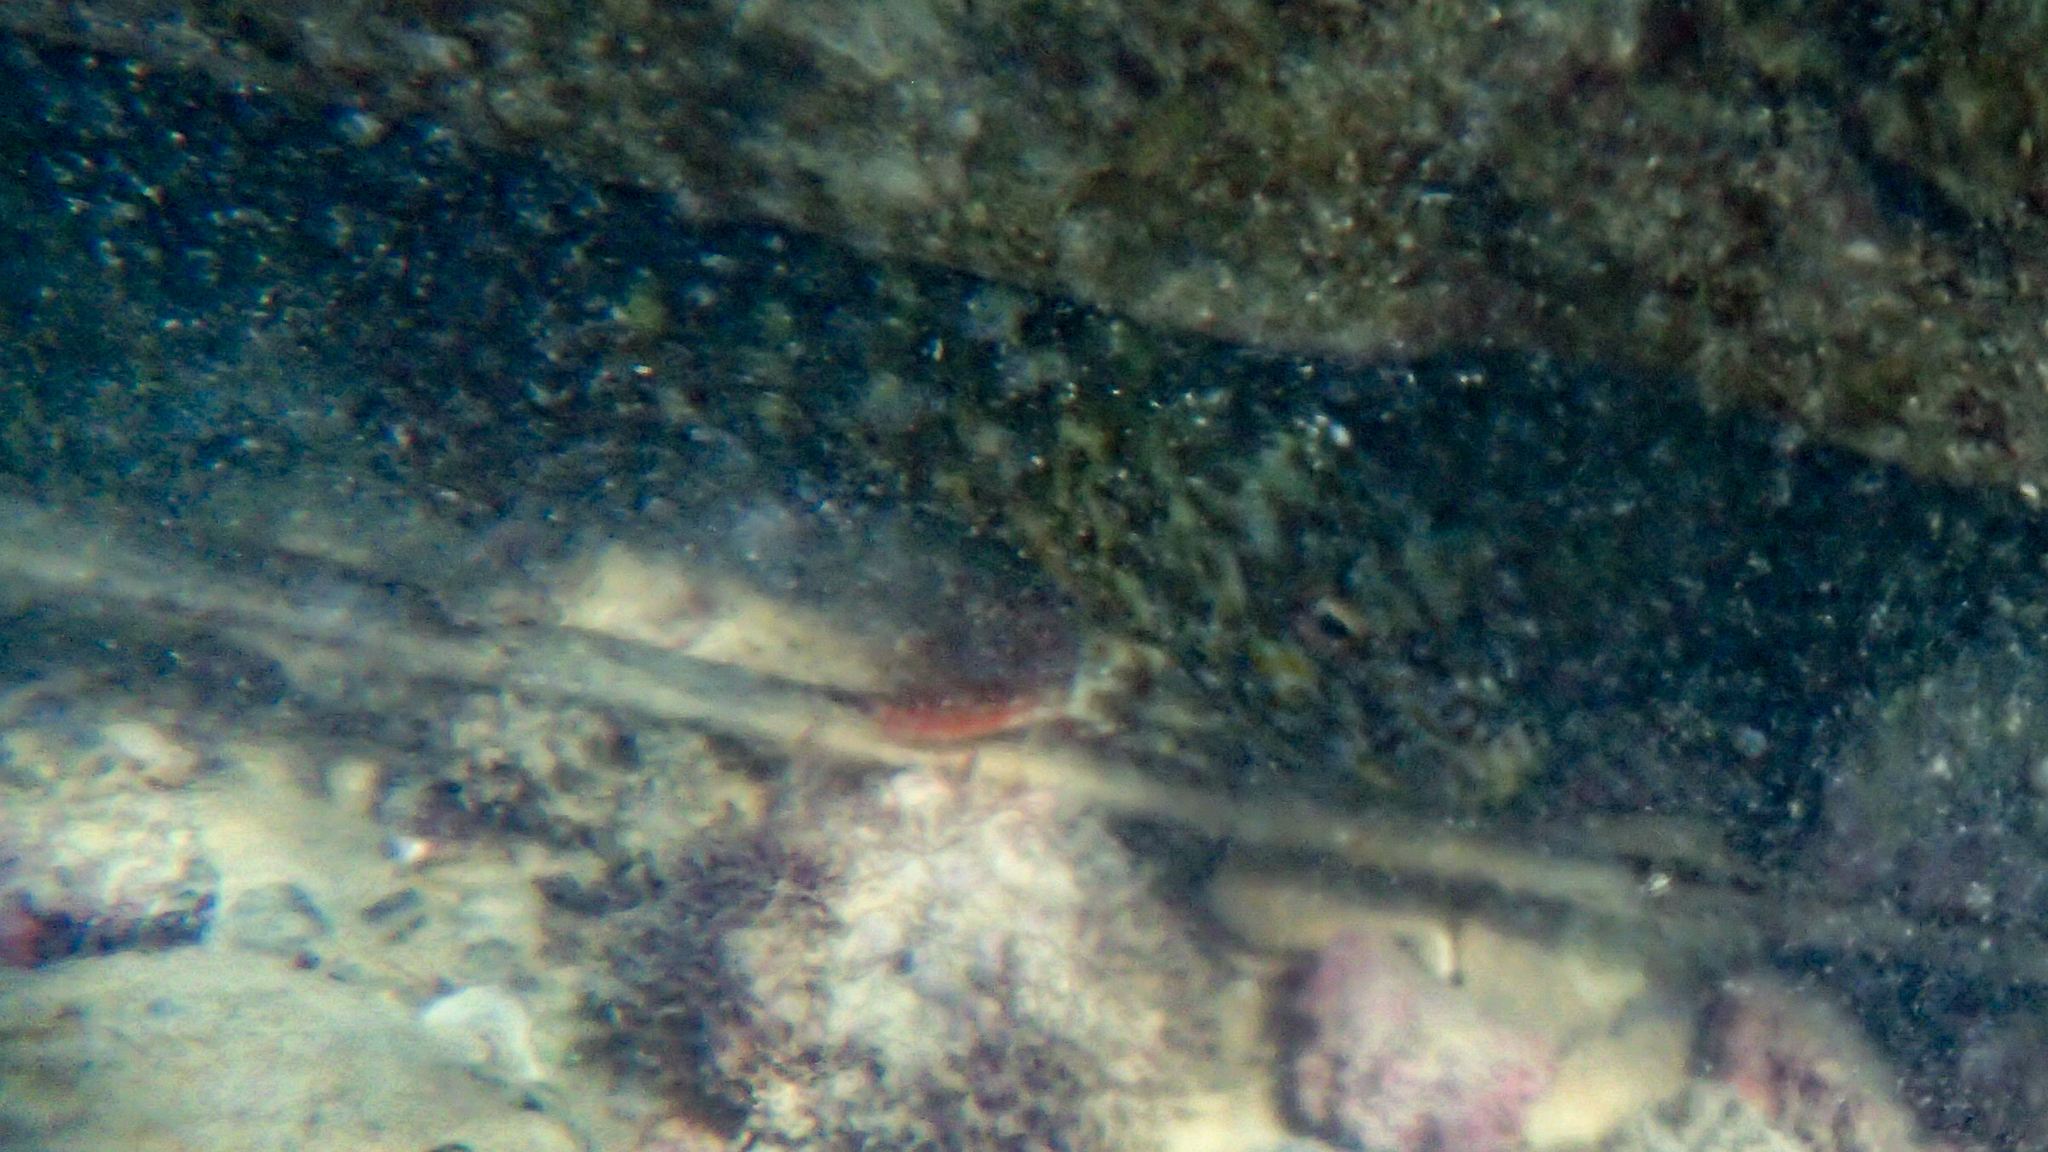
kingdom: Animalia
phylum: Chordata
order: Perciformes
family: Cirrhitidae
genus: Cirrhitus
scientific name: Cirrhitus pinnulatus
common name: Stocky hawkfish
